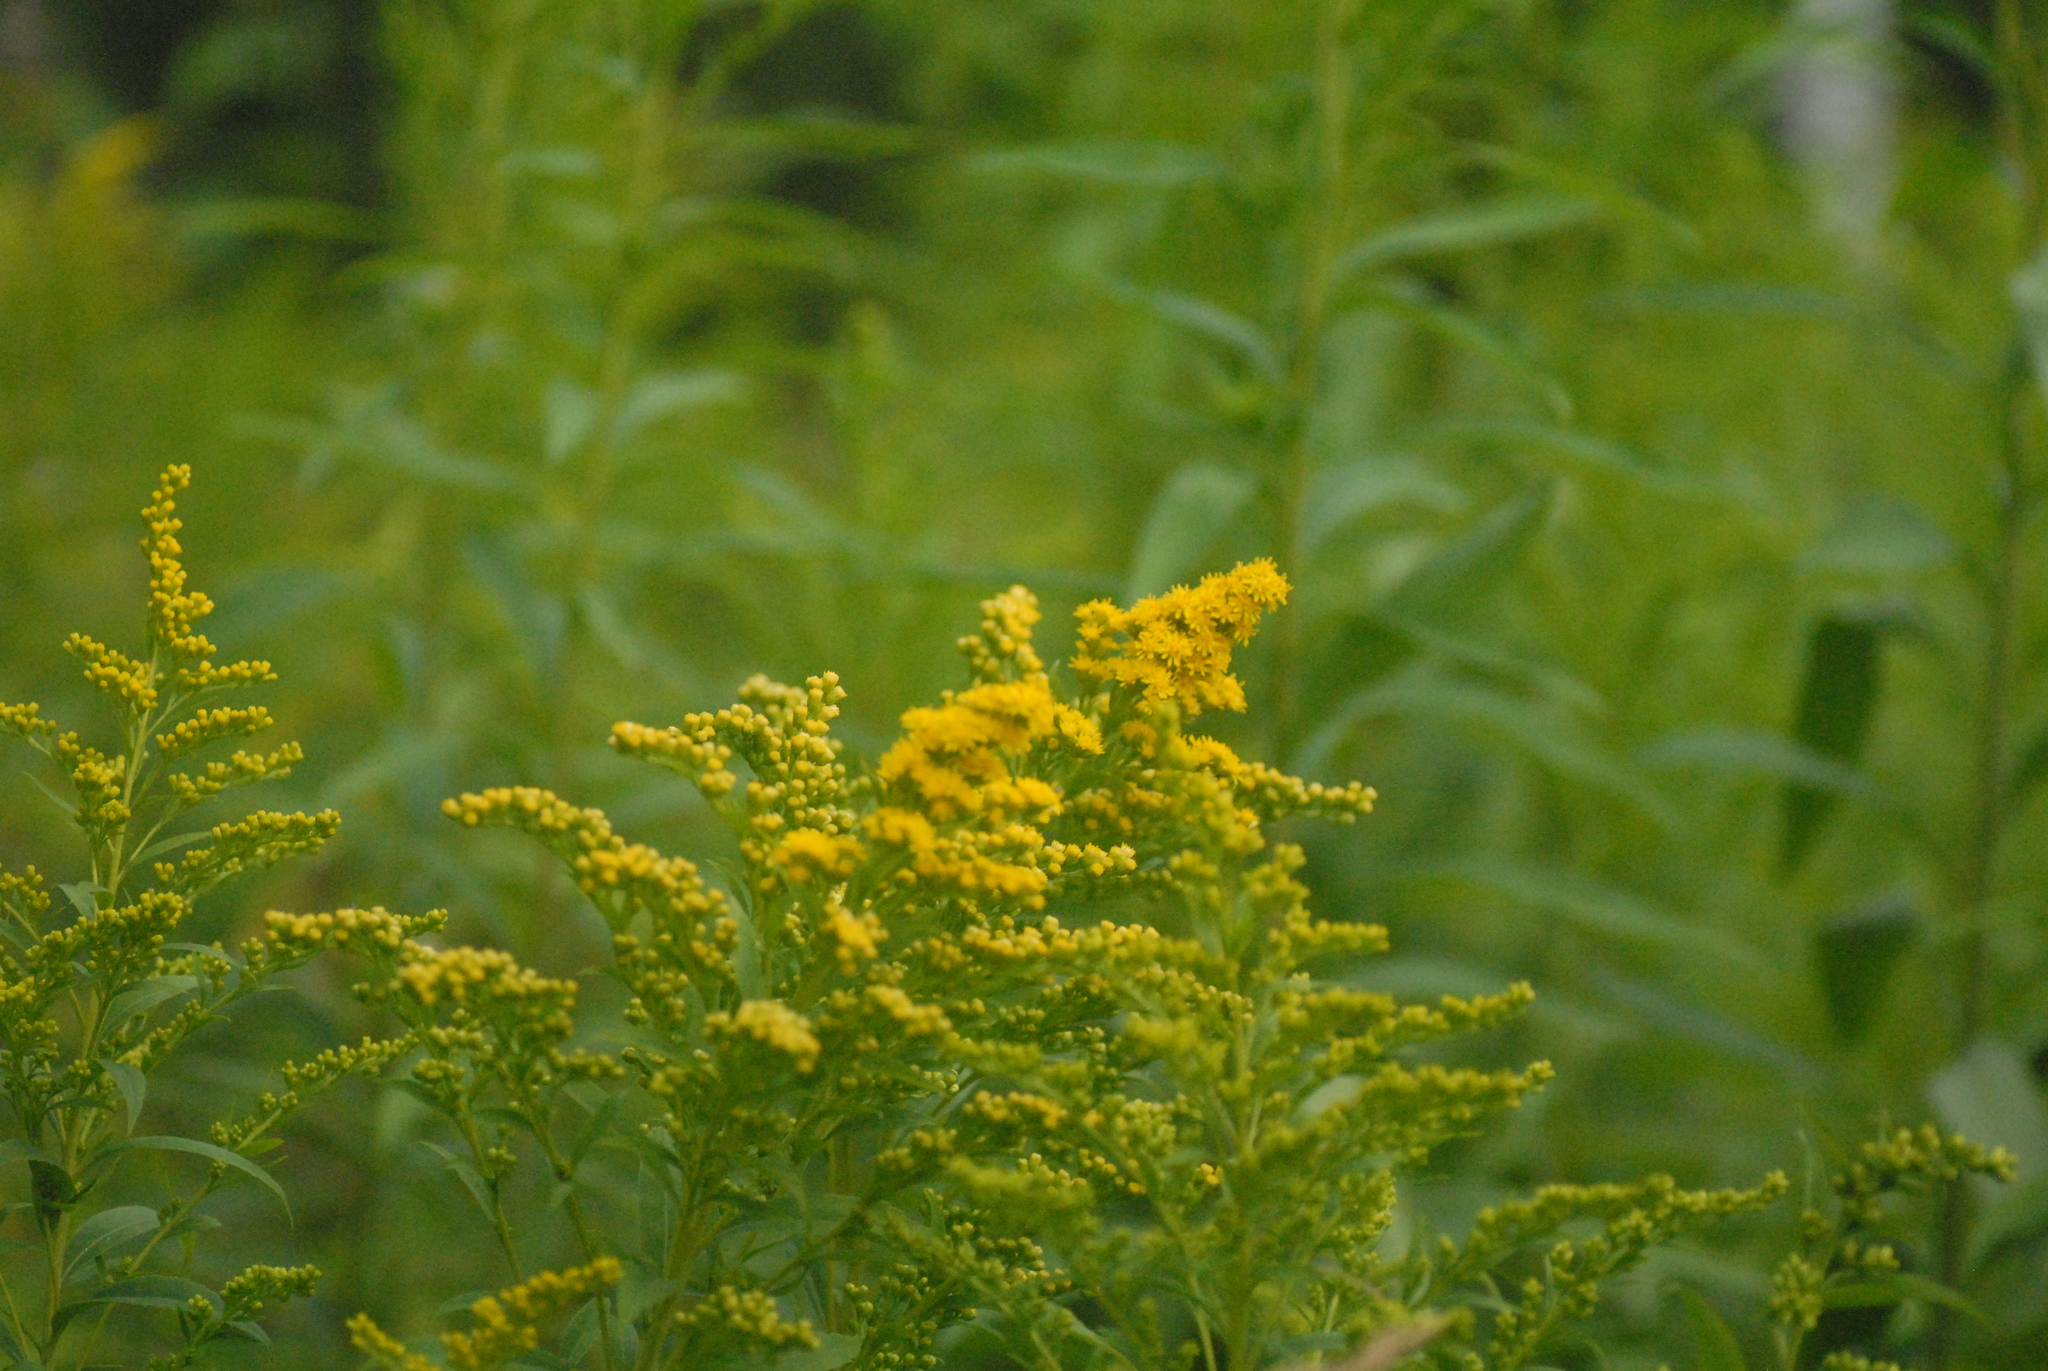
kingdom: Plantae
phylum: Tracheophyta
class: Magnoliopsida
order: Asterales
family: Asteraceae
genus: Solidago
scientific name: Solidago canadensis
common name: Canada goldenrod
